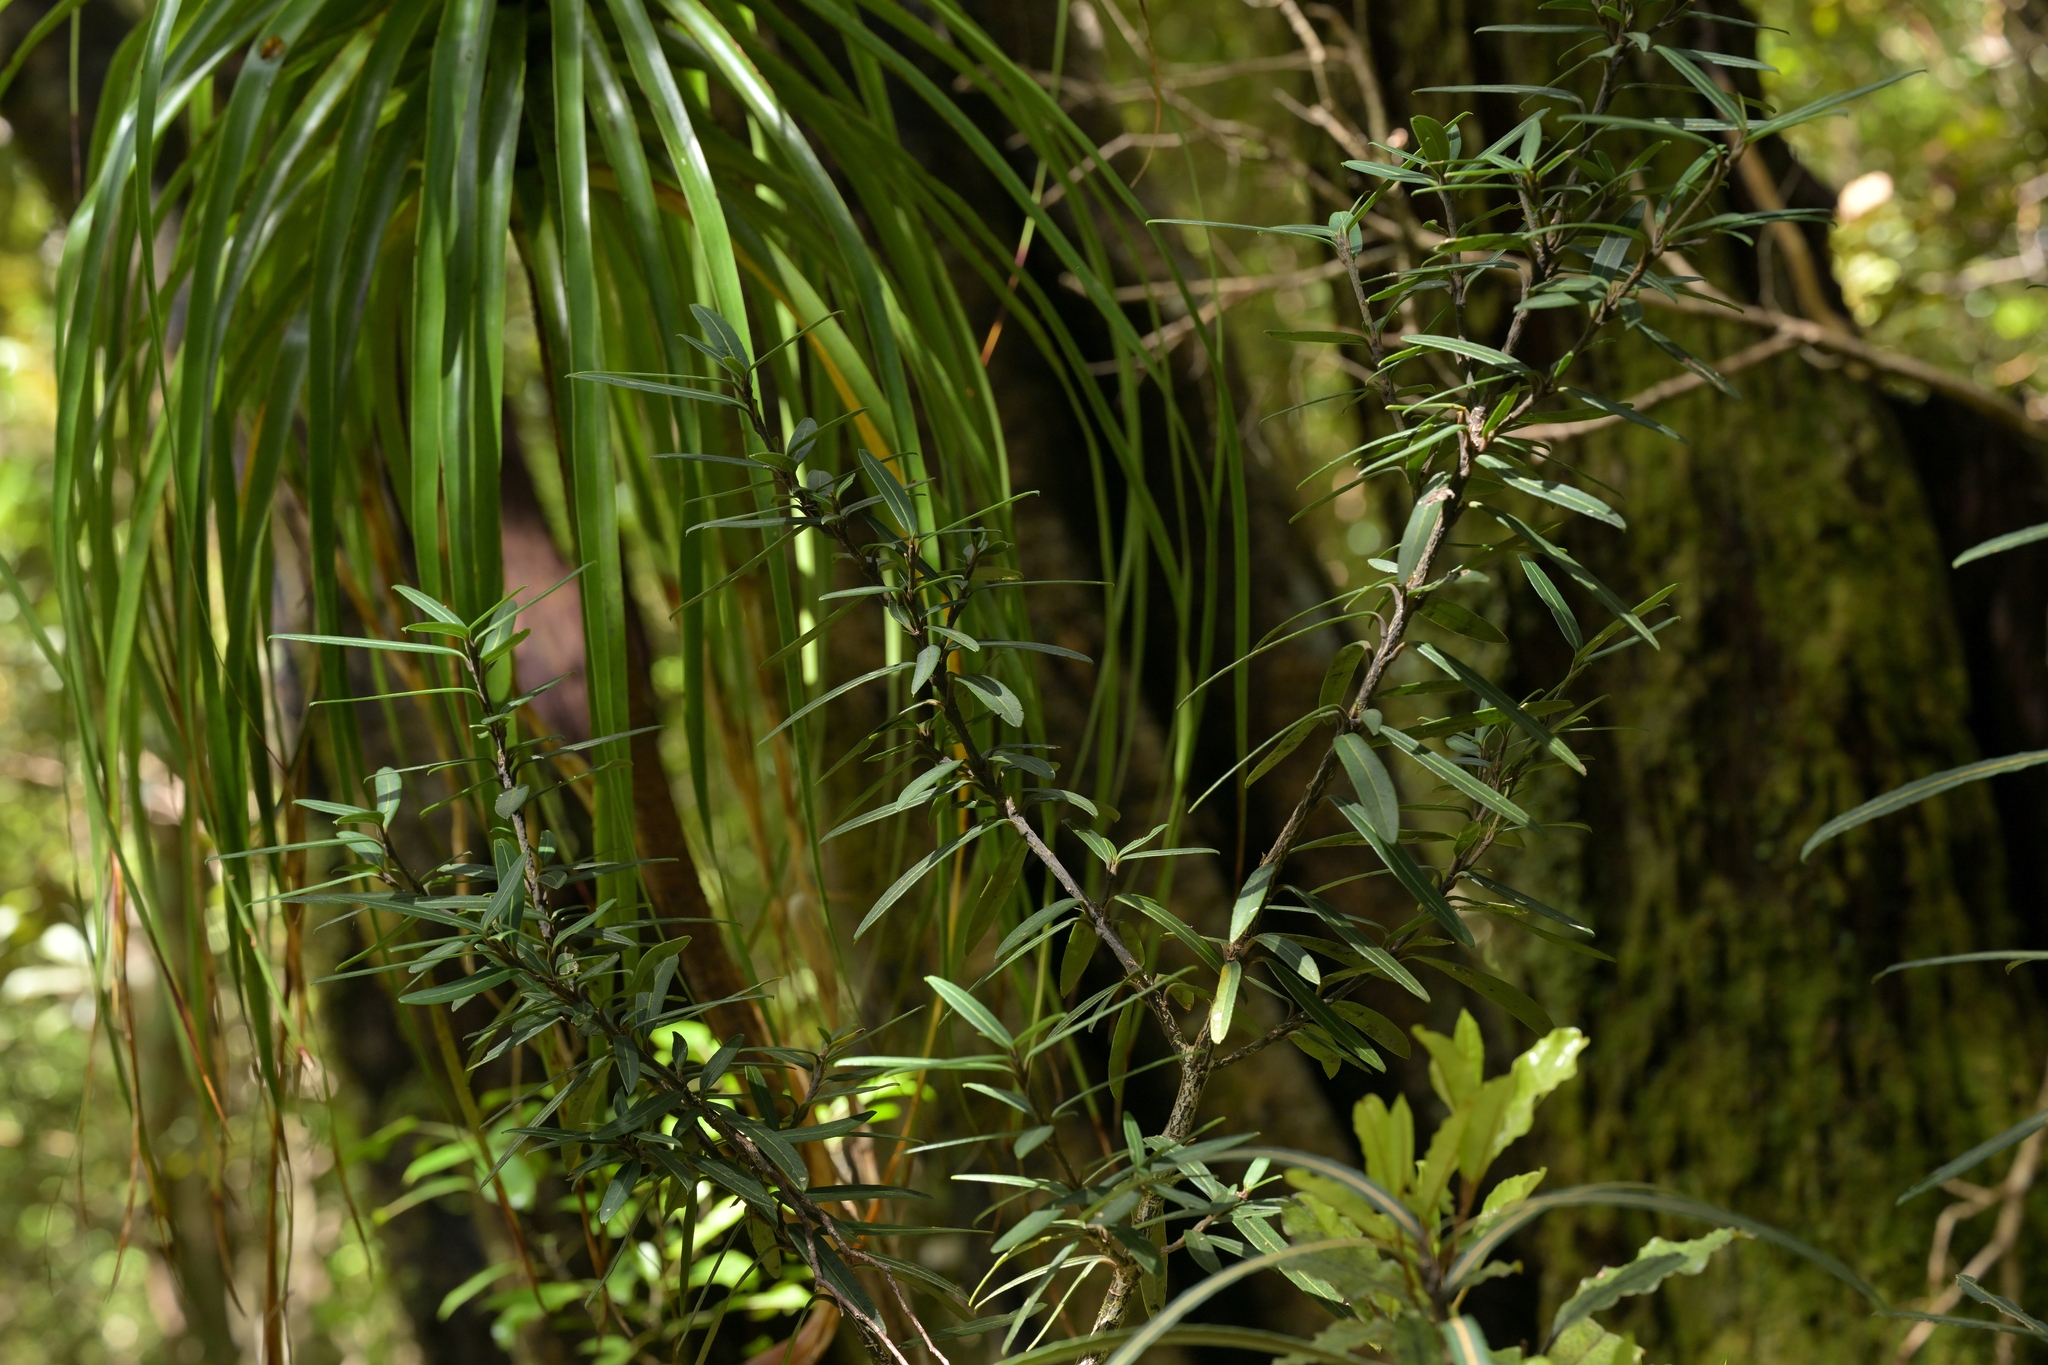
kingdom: Plantae
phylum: Tracheophyta
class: Magnoliopsida
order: Apiales
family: Araliaceae
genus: Pseudopanax
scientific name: Pseudopanax linearis
